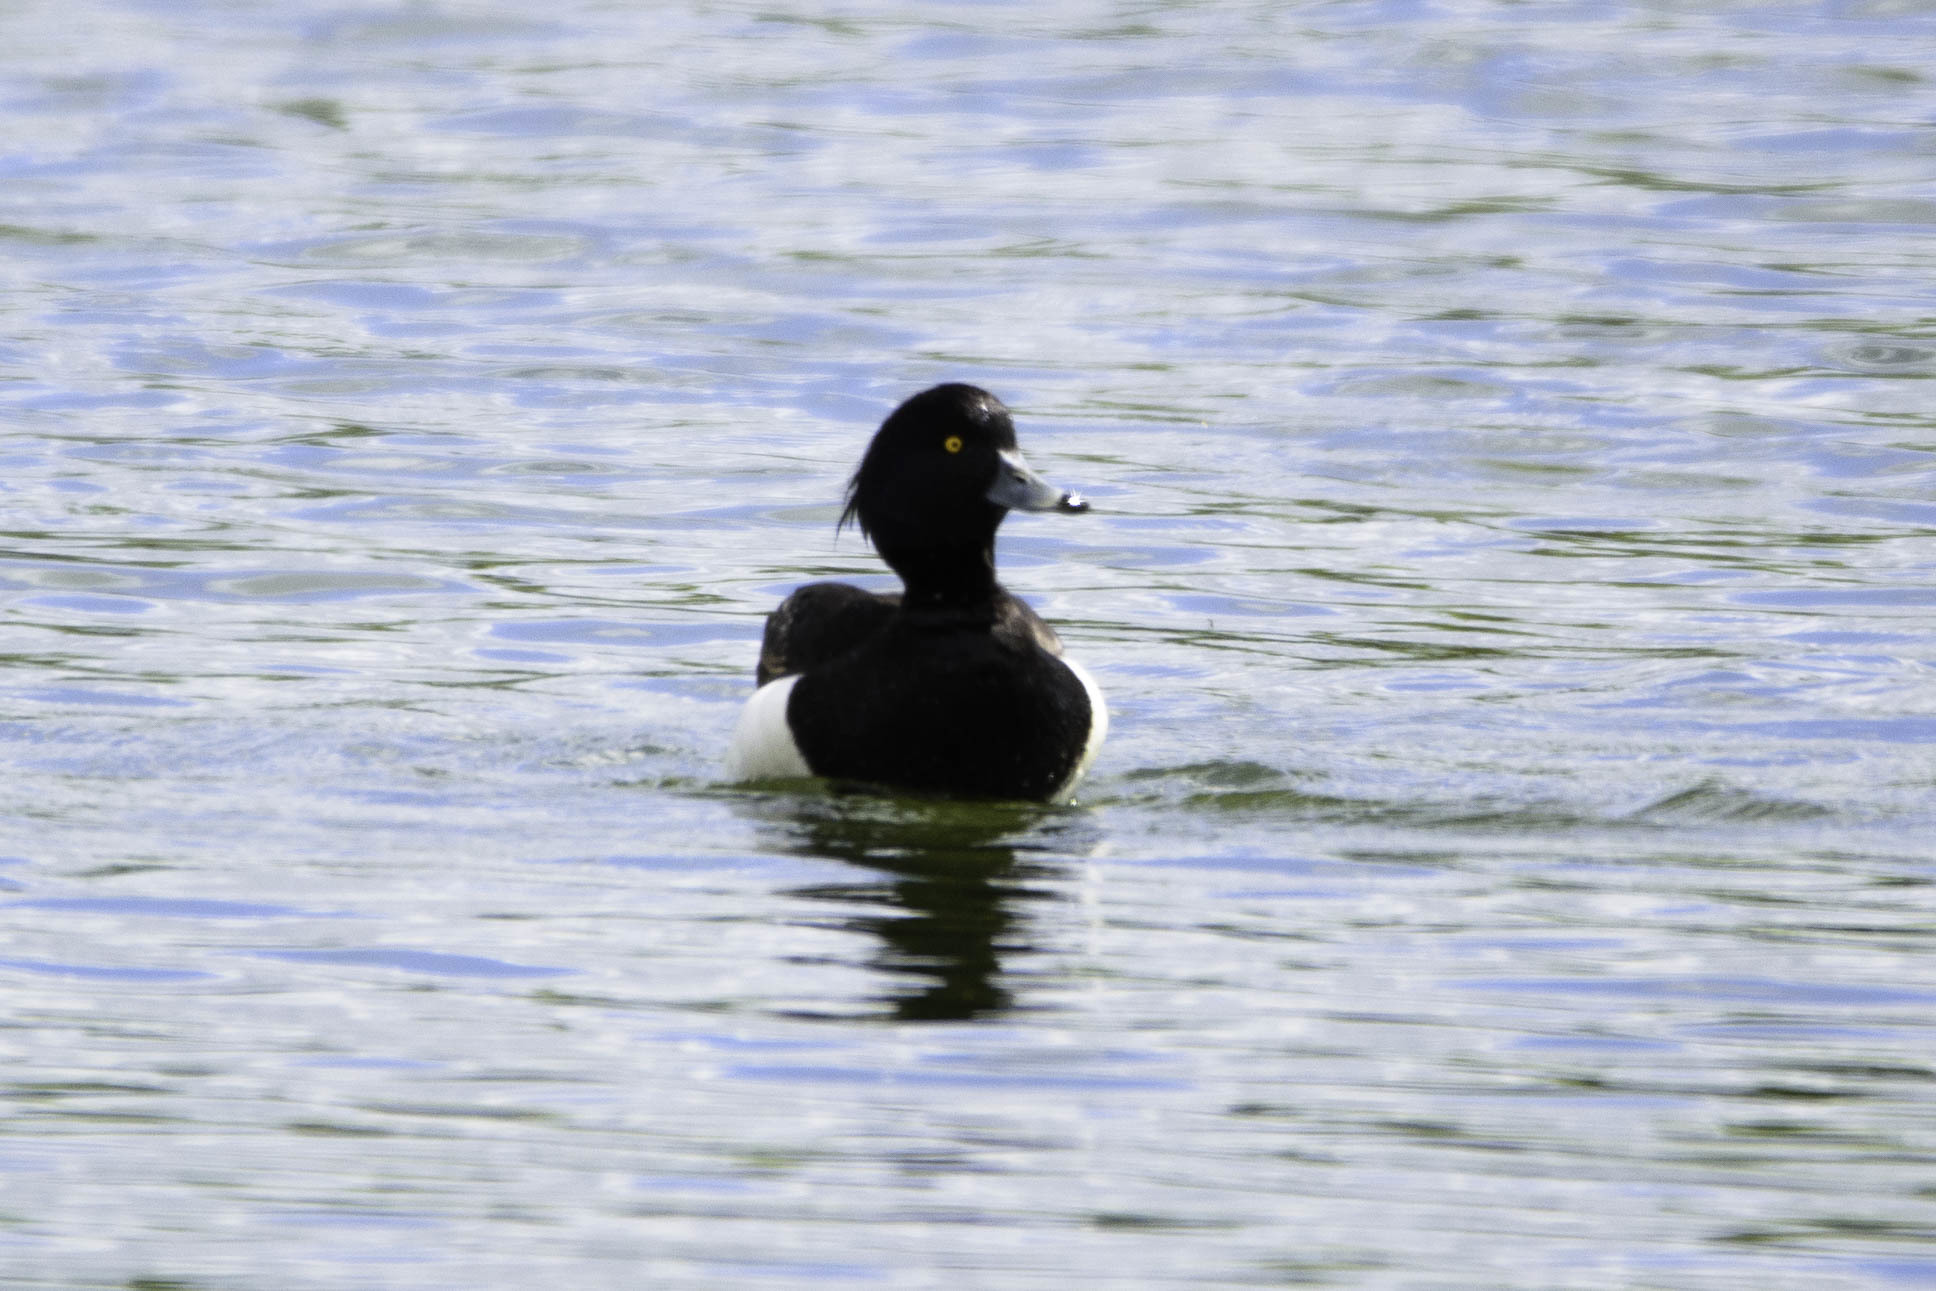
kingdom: Animalia
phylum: Chordata
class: Aves
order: Anseriformes
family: Anatidae
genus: Aythya
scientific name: Aythya fuligula
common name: Tufted duck
